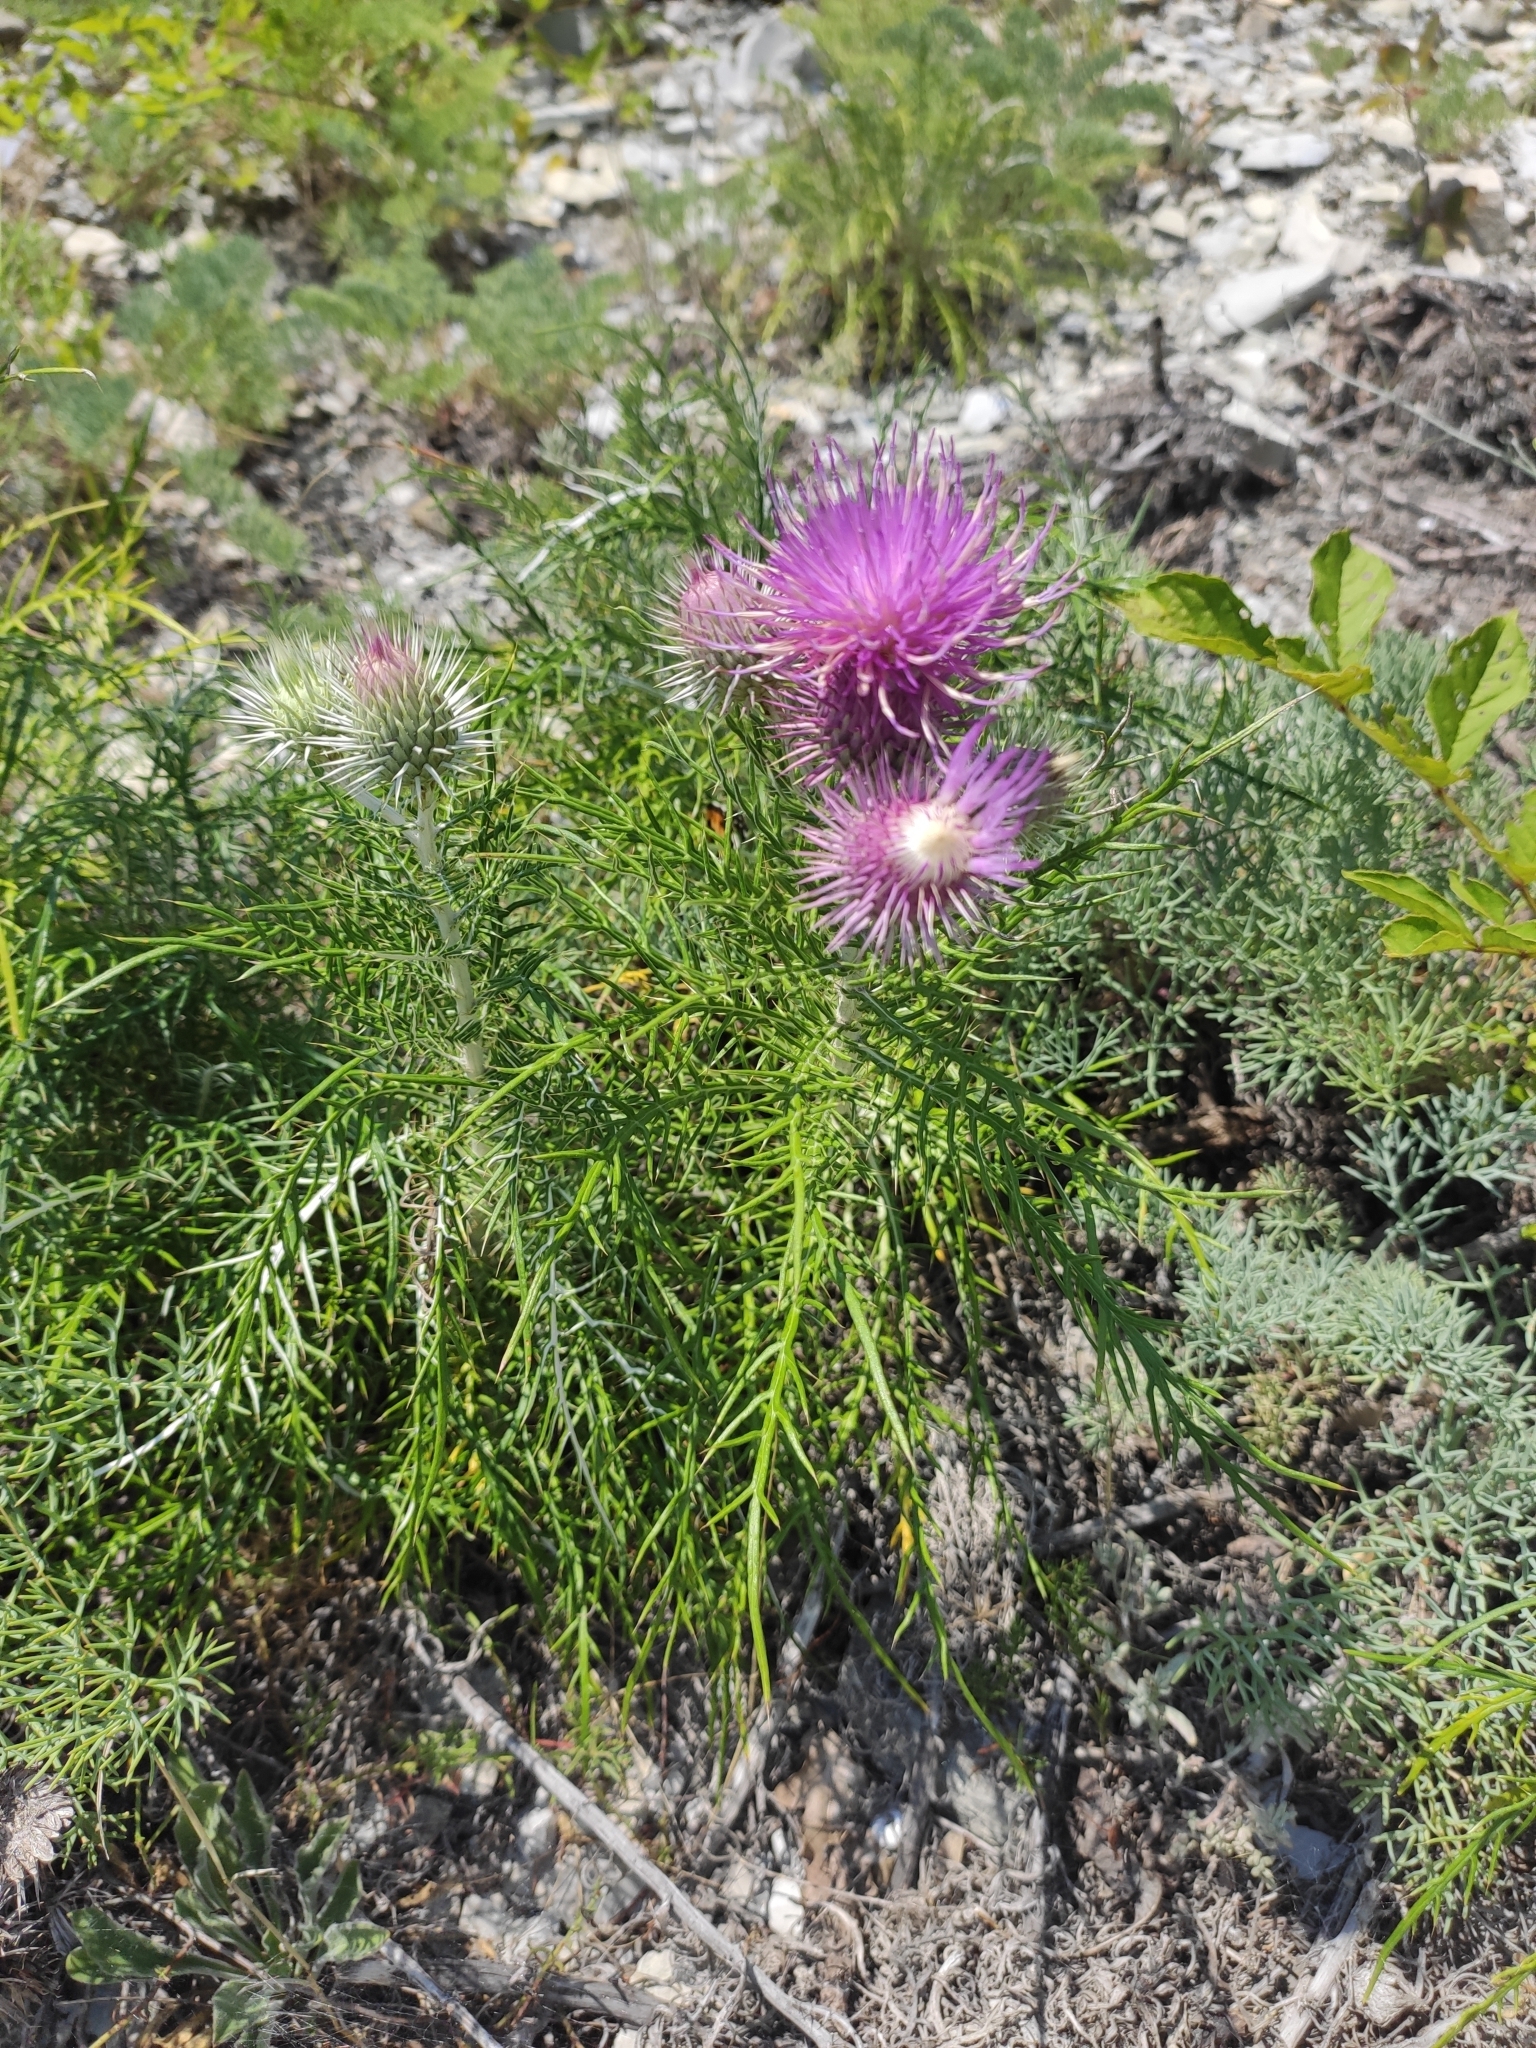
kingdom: Plantae
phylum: Tracheophyta
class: Magnoliopsida
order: Asterales
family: Asteraceae
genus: Ptilostemon
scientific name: Ptilostemon echinocephalus
